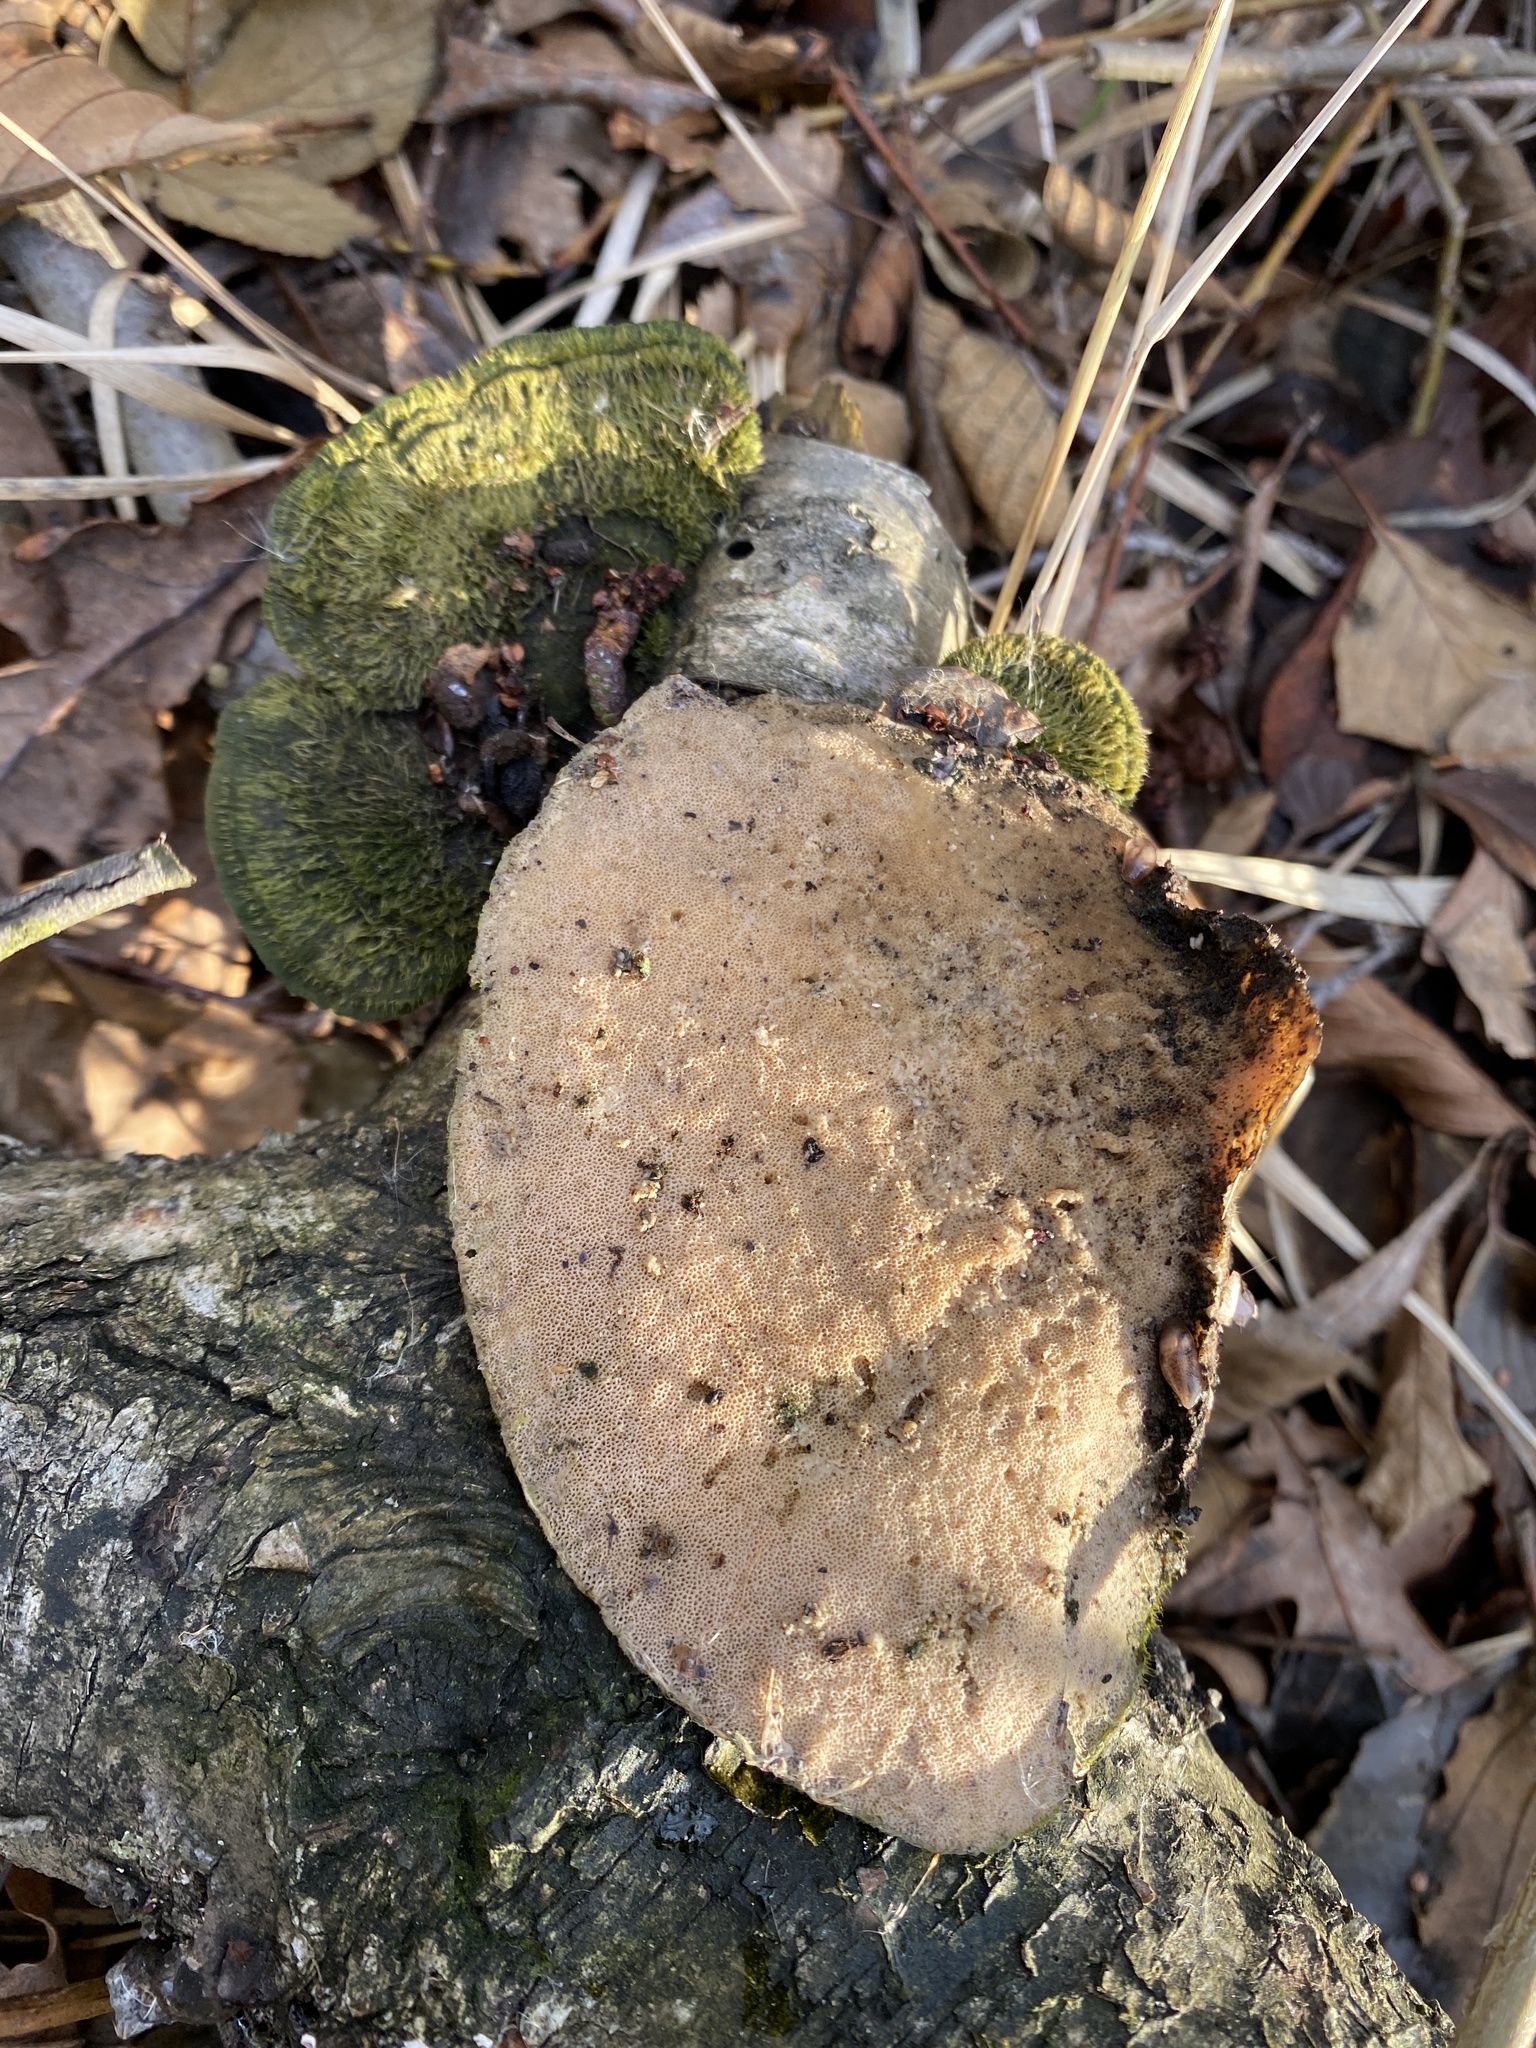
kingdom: Fungi
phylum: Basidiomycota
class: Agaricomycetes
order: Polyporales
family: Polyporaceae
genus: Trametes
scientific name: Trametes hirsuta
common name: Hairy bracket
